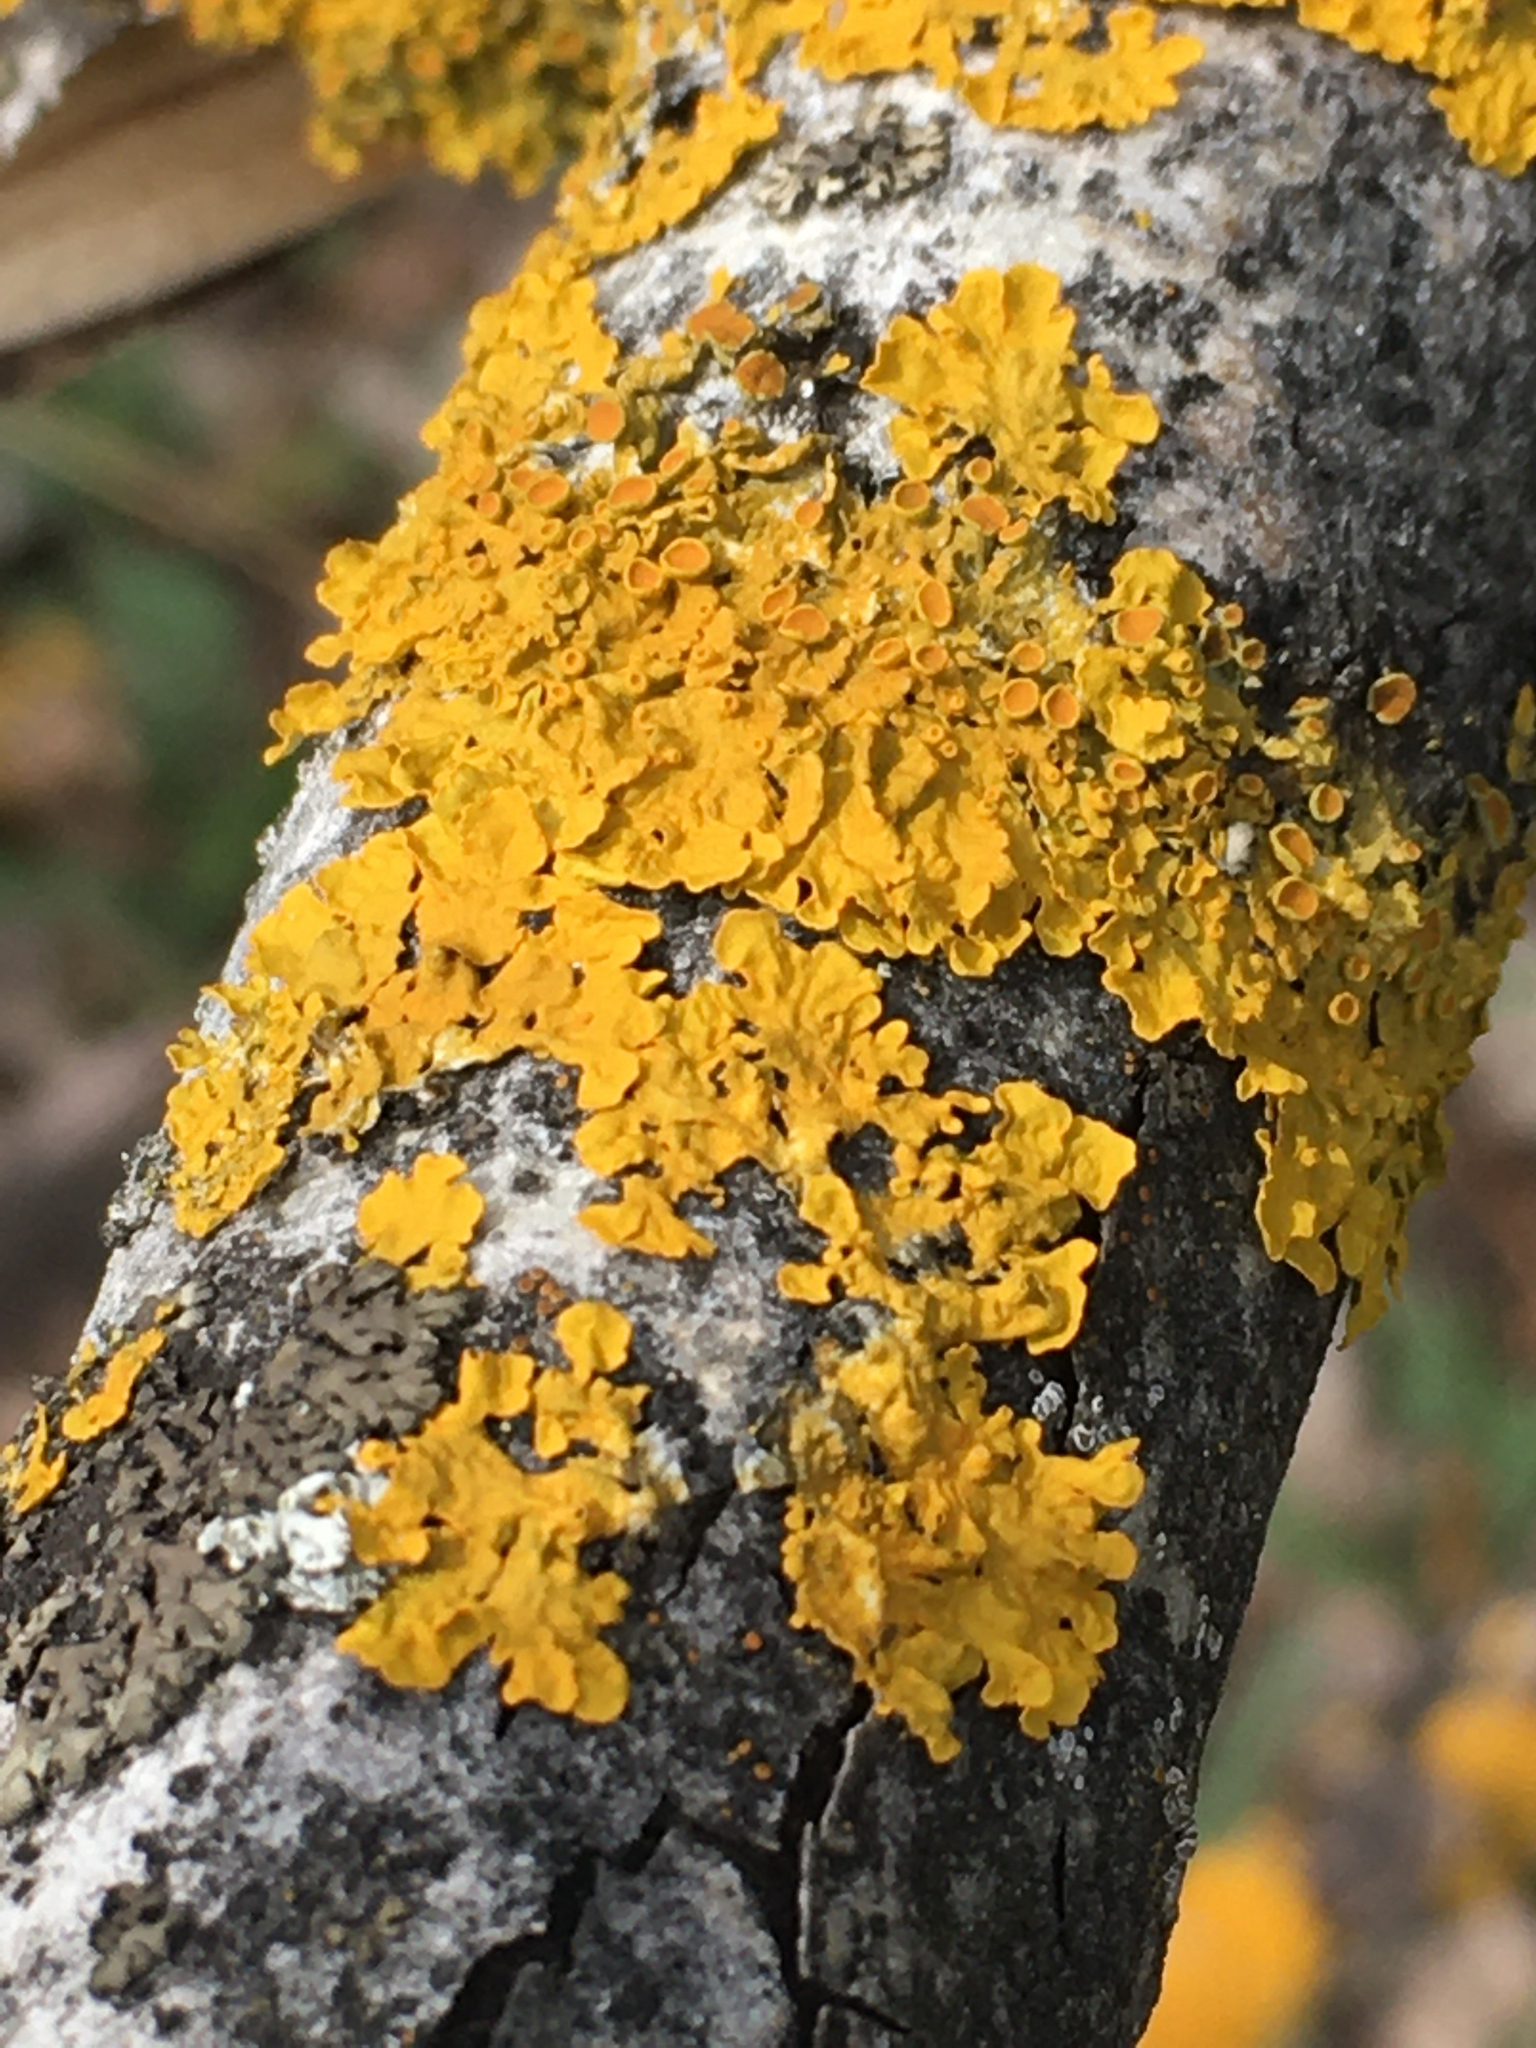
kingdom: Fungi
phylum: Ascomycota
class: Lecanoromycetes
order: Teloschistales
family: Teloschistaceae
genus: Xanthoria
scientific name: Xanthoria parietina
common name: Common orange lichen
